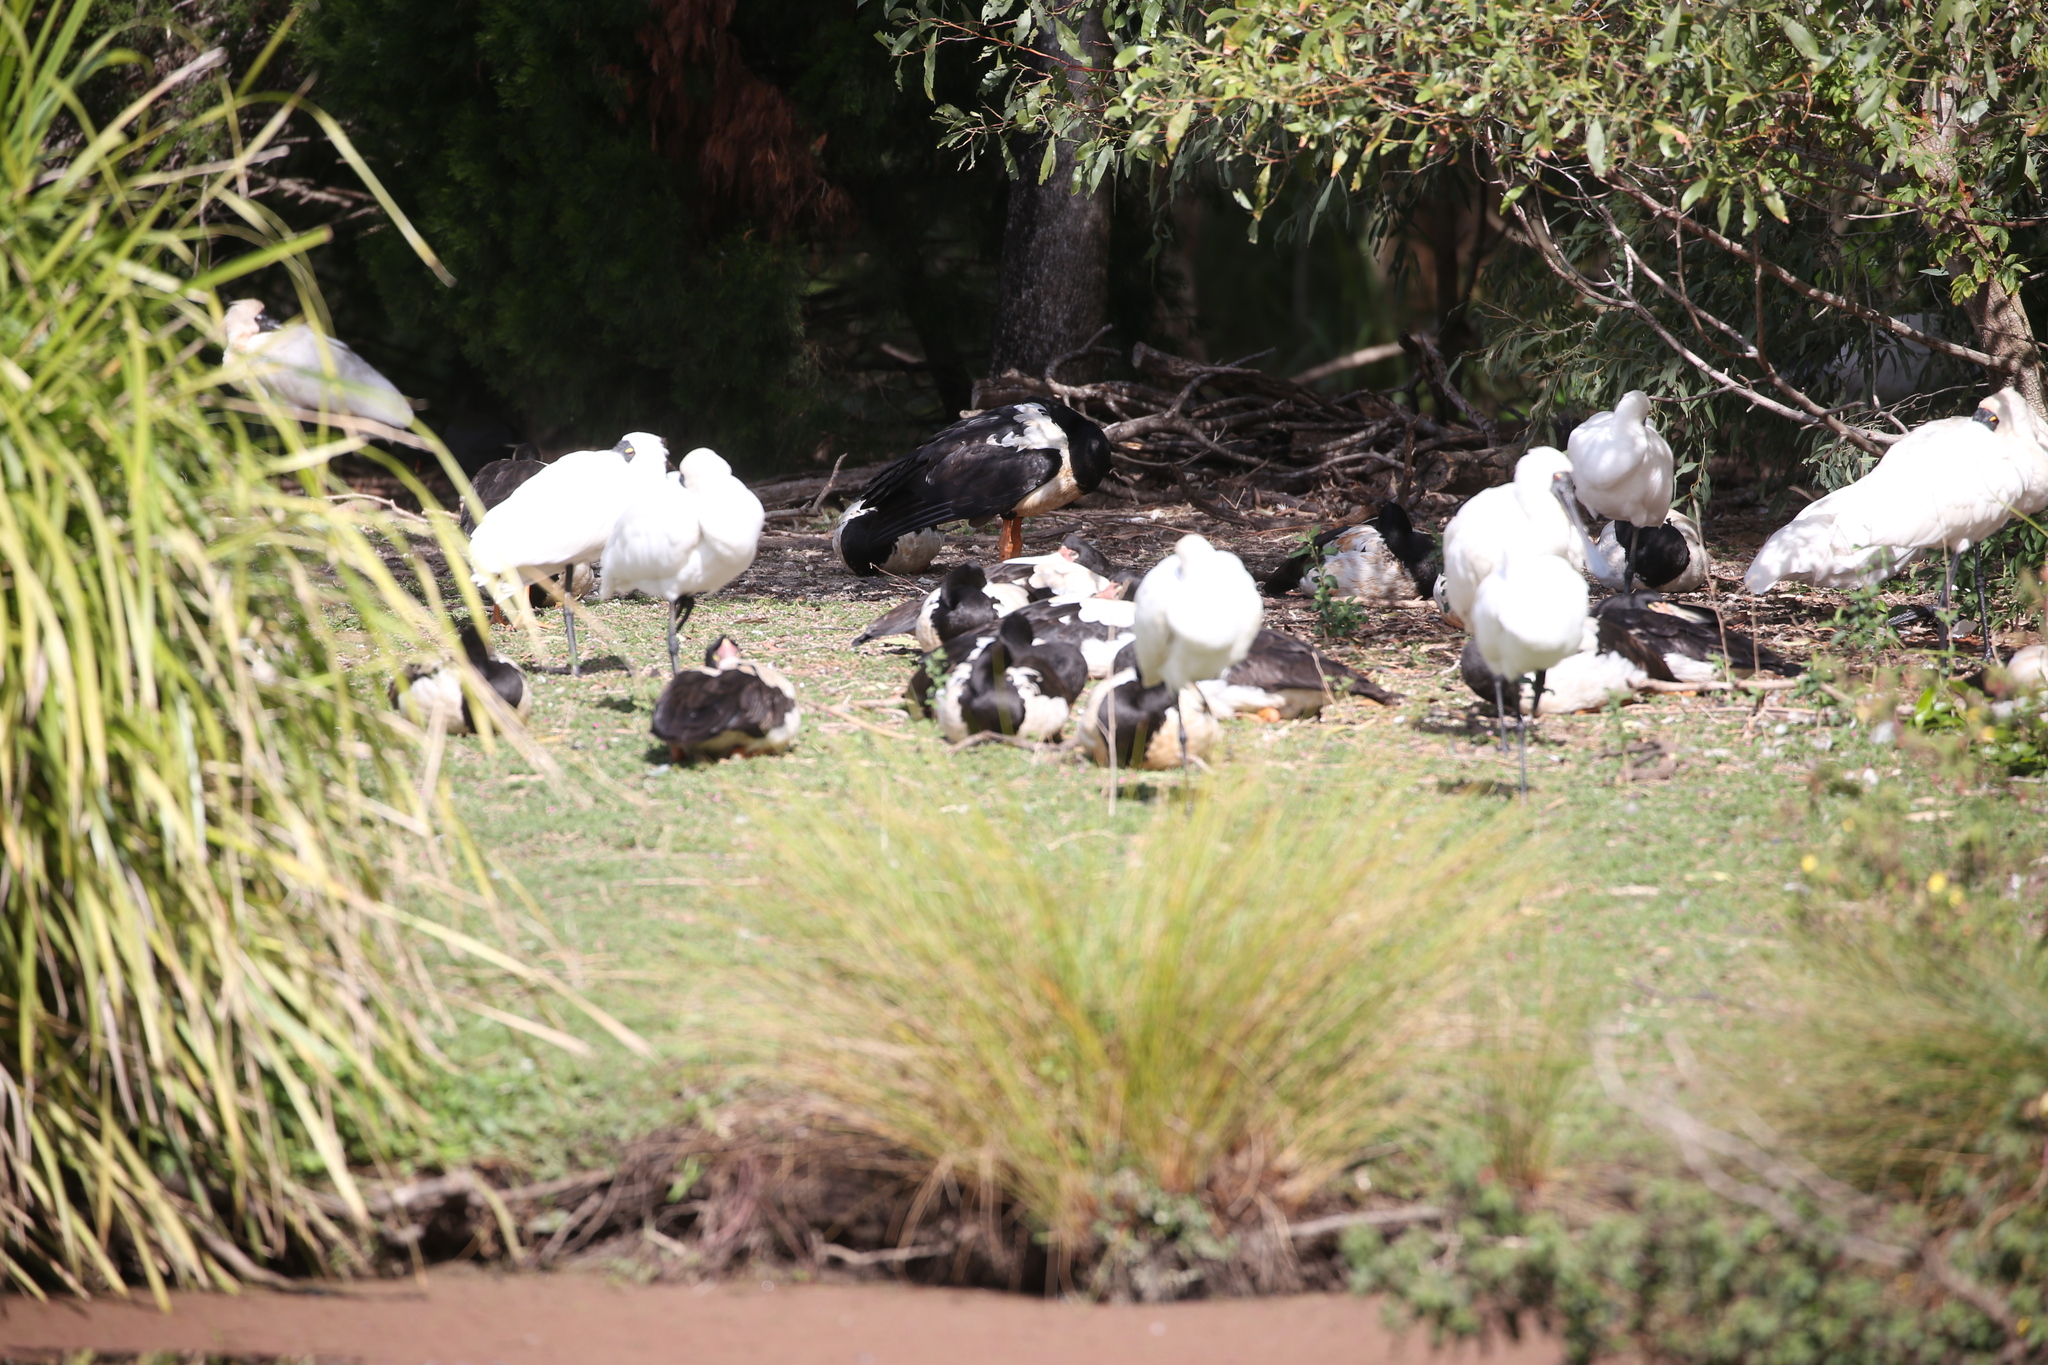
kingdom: Animalia
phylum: Chordata
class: Aves
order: Pelecaniformes
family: Threskiornithidae
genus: Platalea
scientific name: Platalea regia
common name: Royal spoonbill
